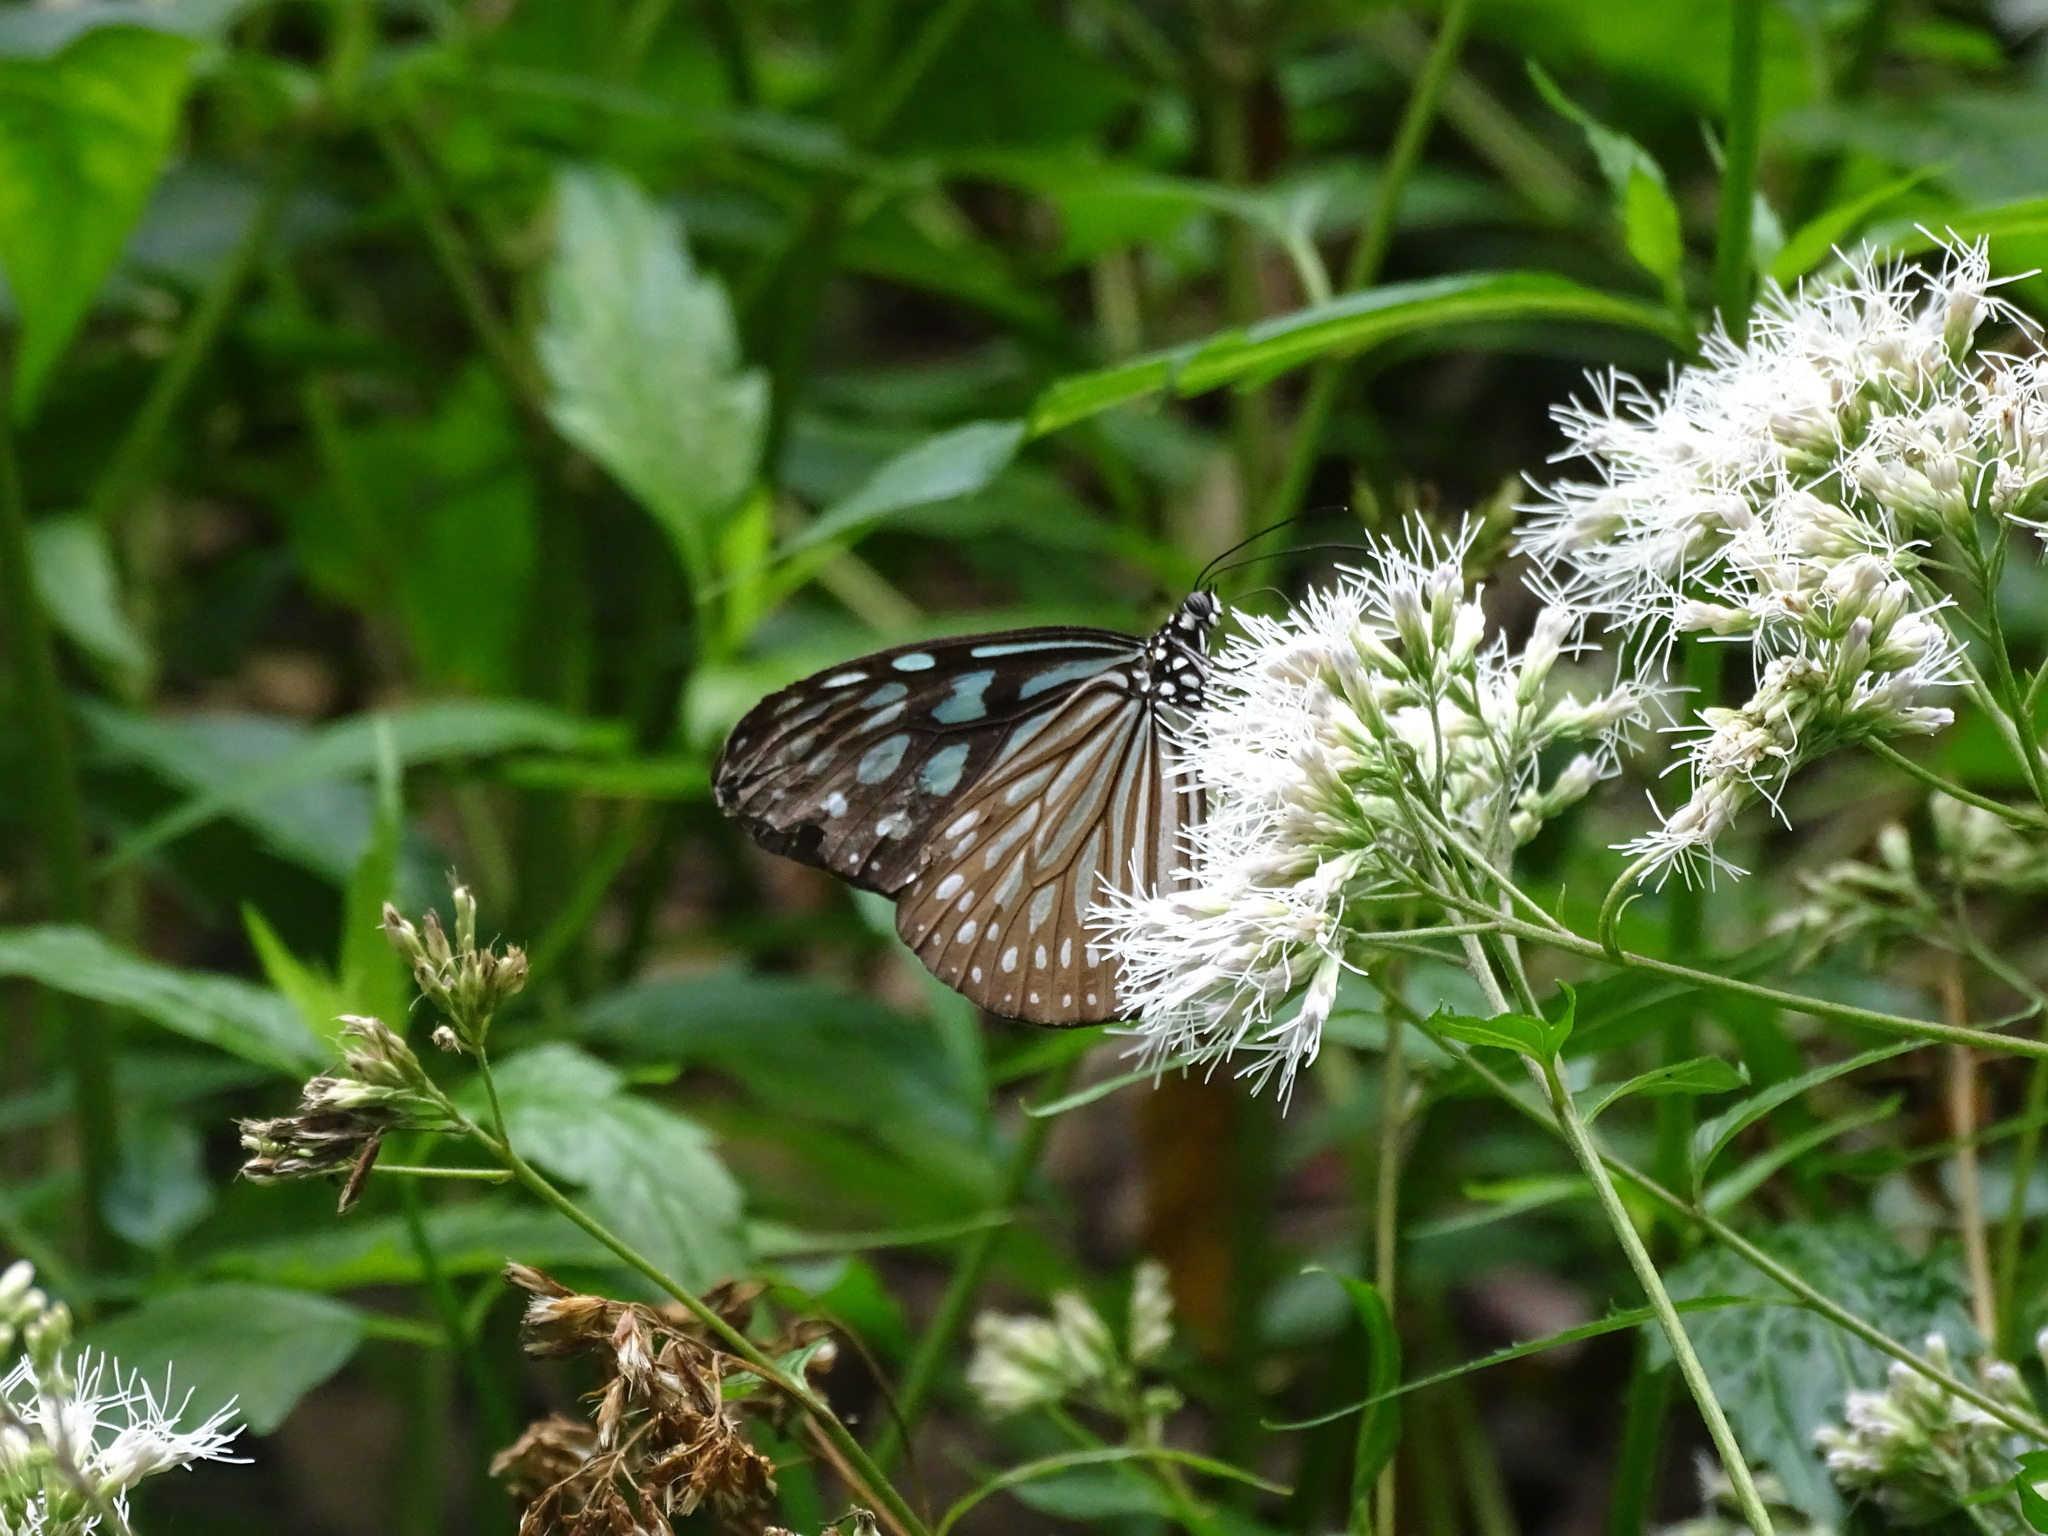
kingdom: Animalia
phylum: Arthropoda
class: Insecta
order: Lepidoptera
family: Nymphalidae
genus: Ideopsis
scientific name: Ideopsis similis
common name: Ceylon blue glassy tiger
